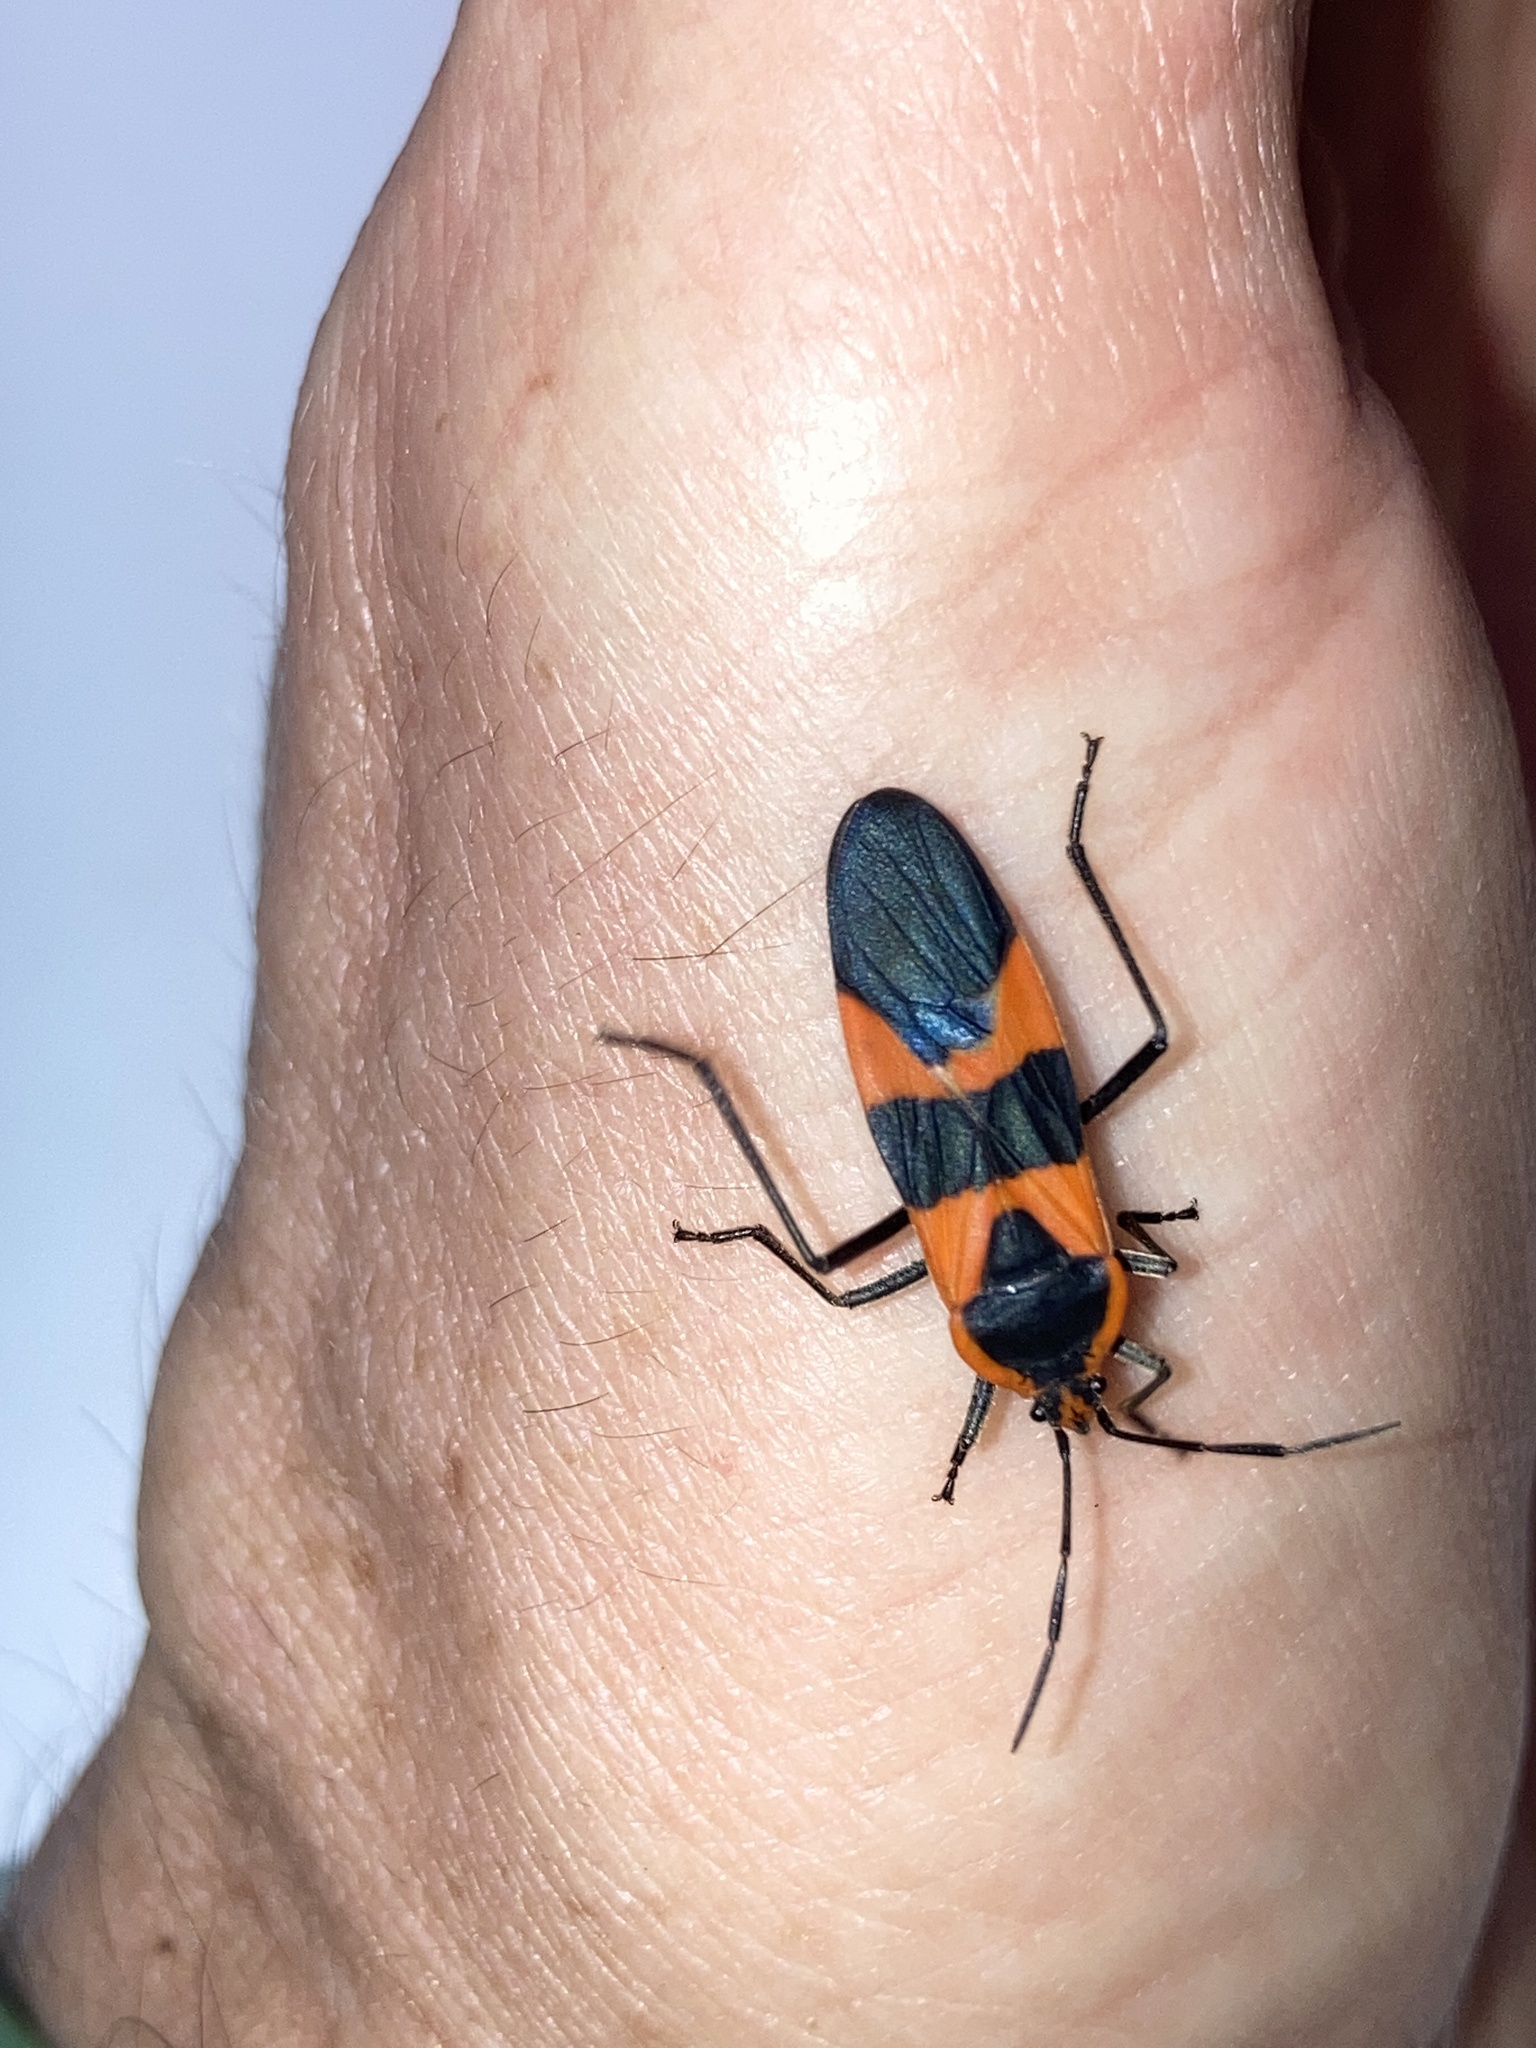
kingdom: Animalia
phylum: Arthropoda
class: Insecta
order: Hemiptera
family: Lygaeidae
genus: Oncopeltus
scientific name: Oncopeltus fasciatus
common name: Large milkweed bug
